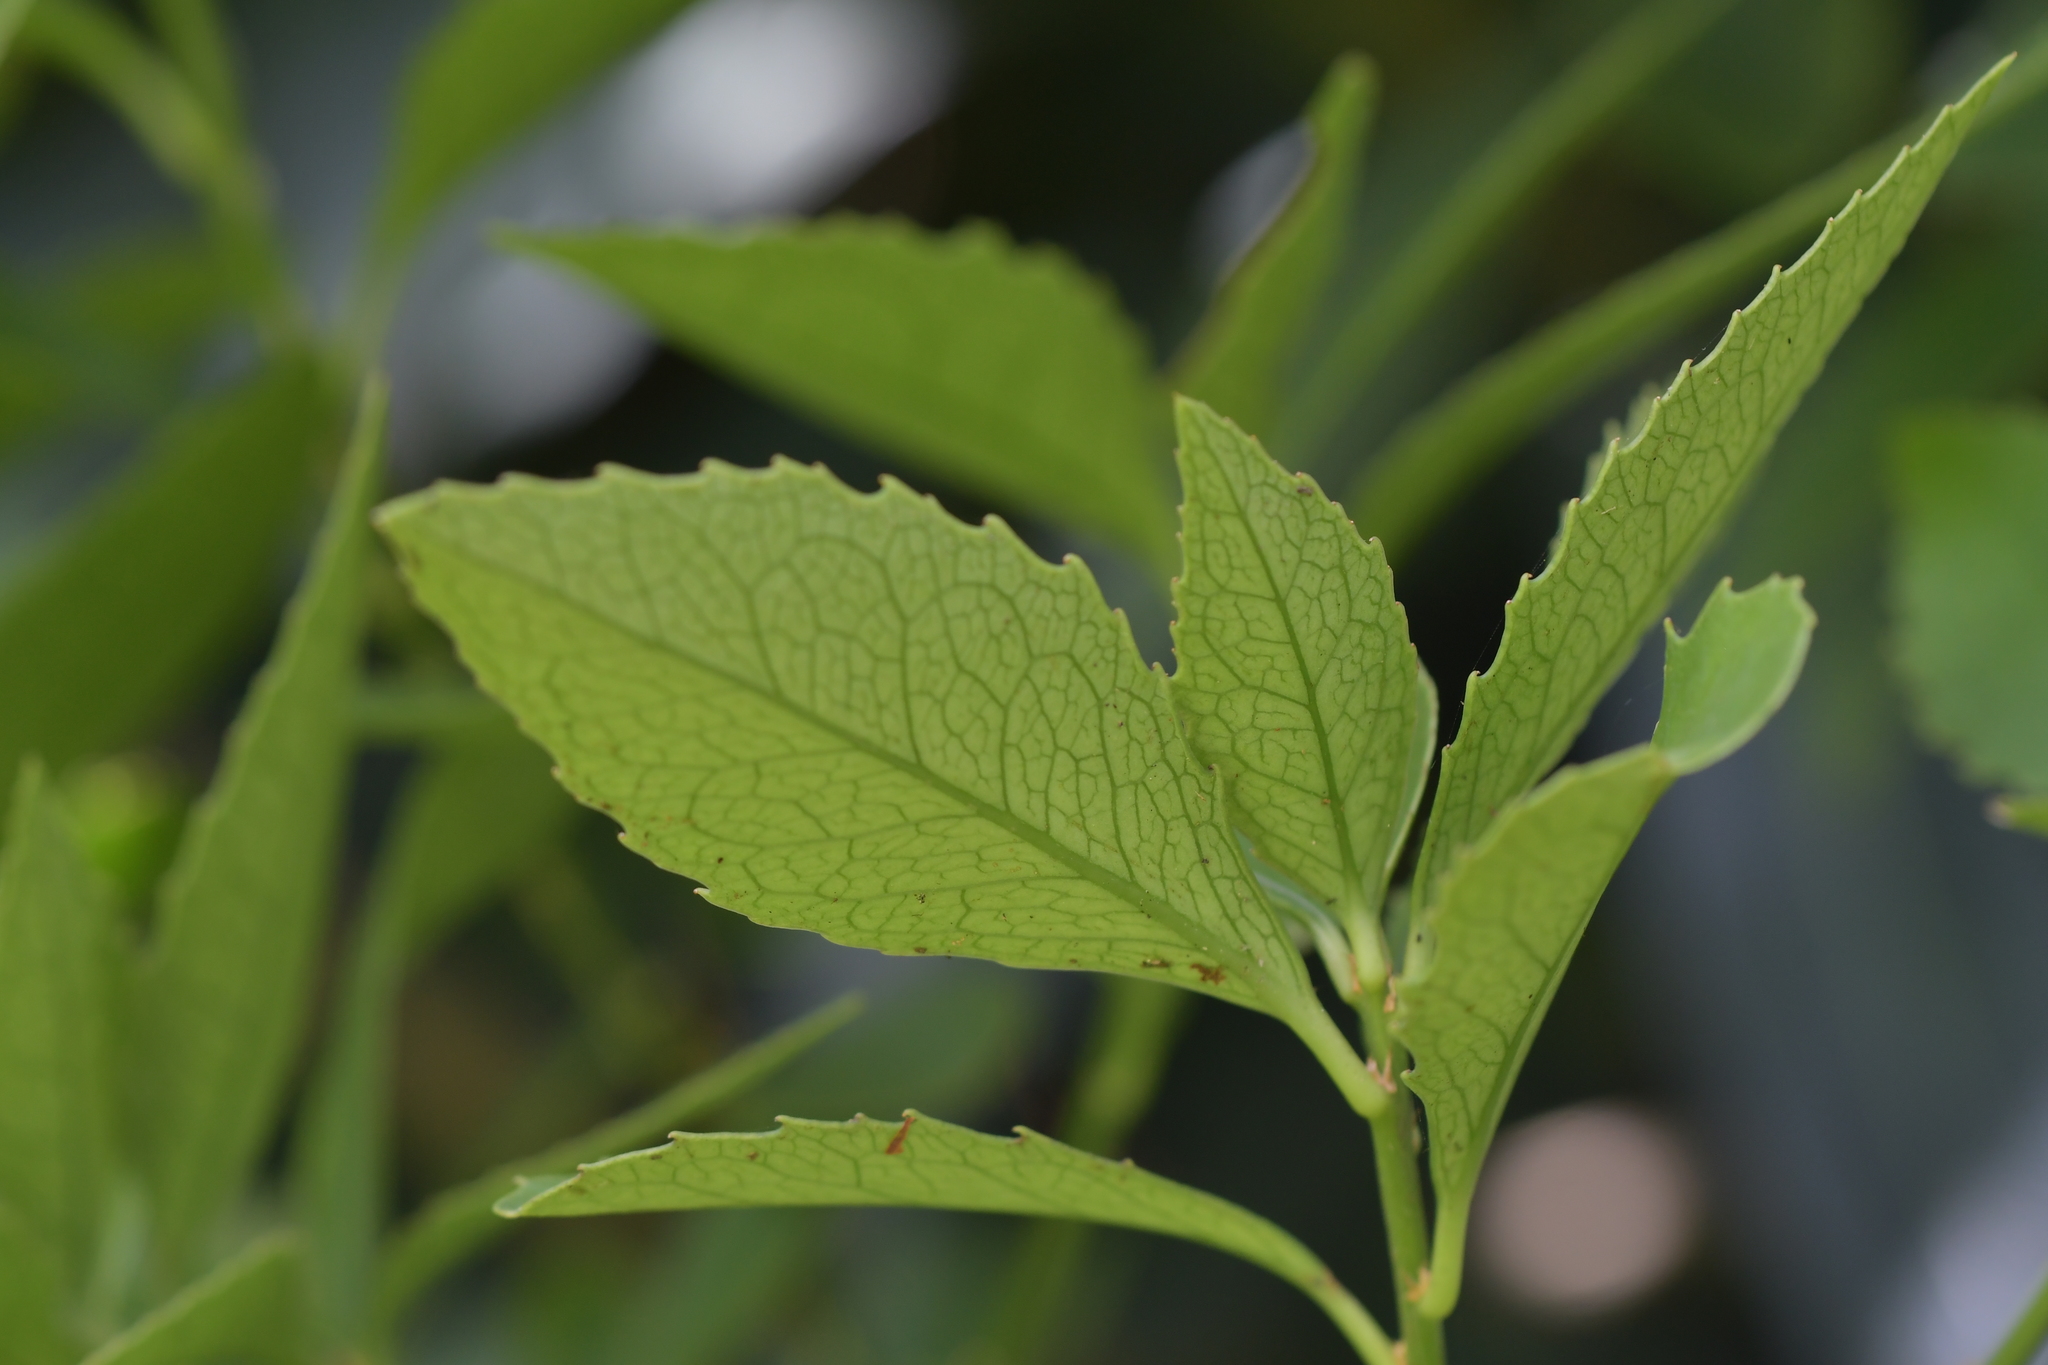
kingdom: Plantae
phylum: Tracheophyta
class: Magnoliopsida
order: Malpighiales
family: Violaceae
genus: Melicytus
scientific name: Melicytus chathamicus
